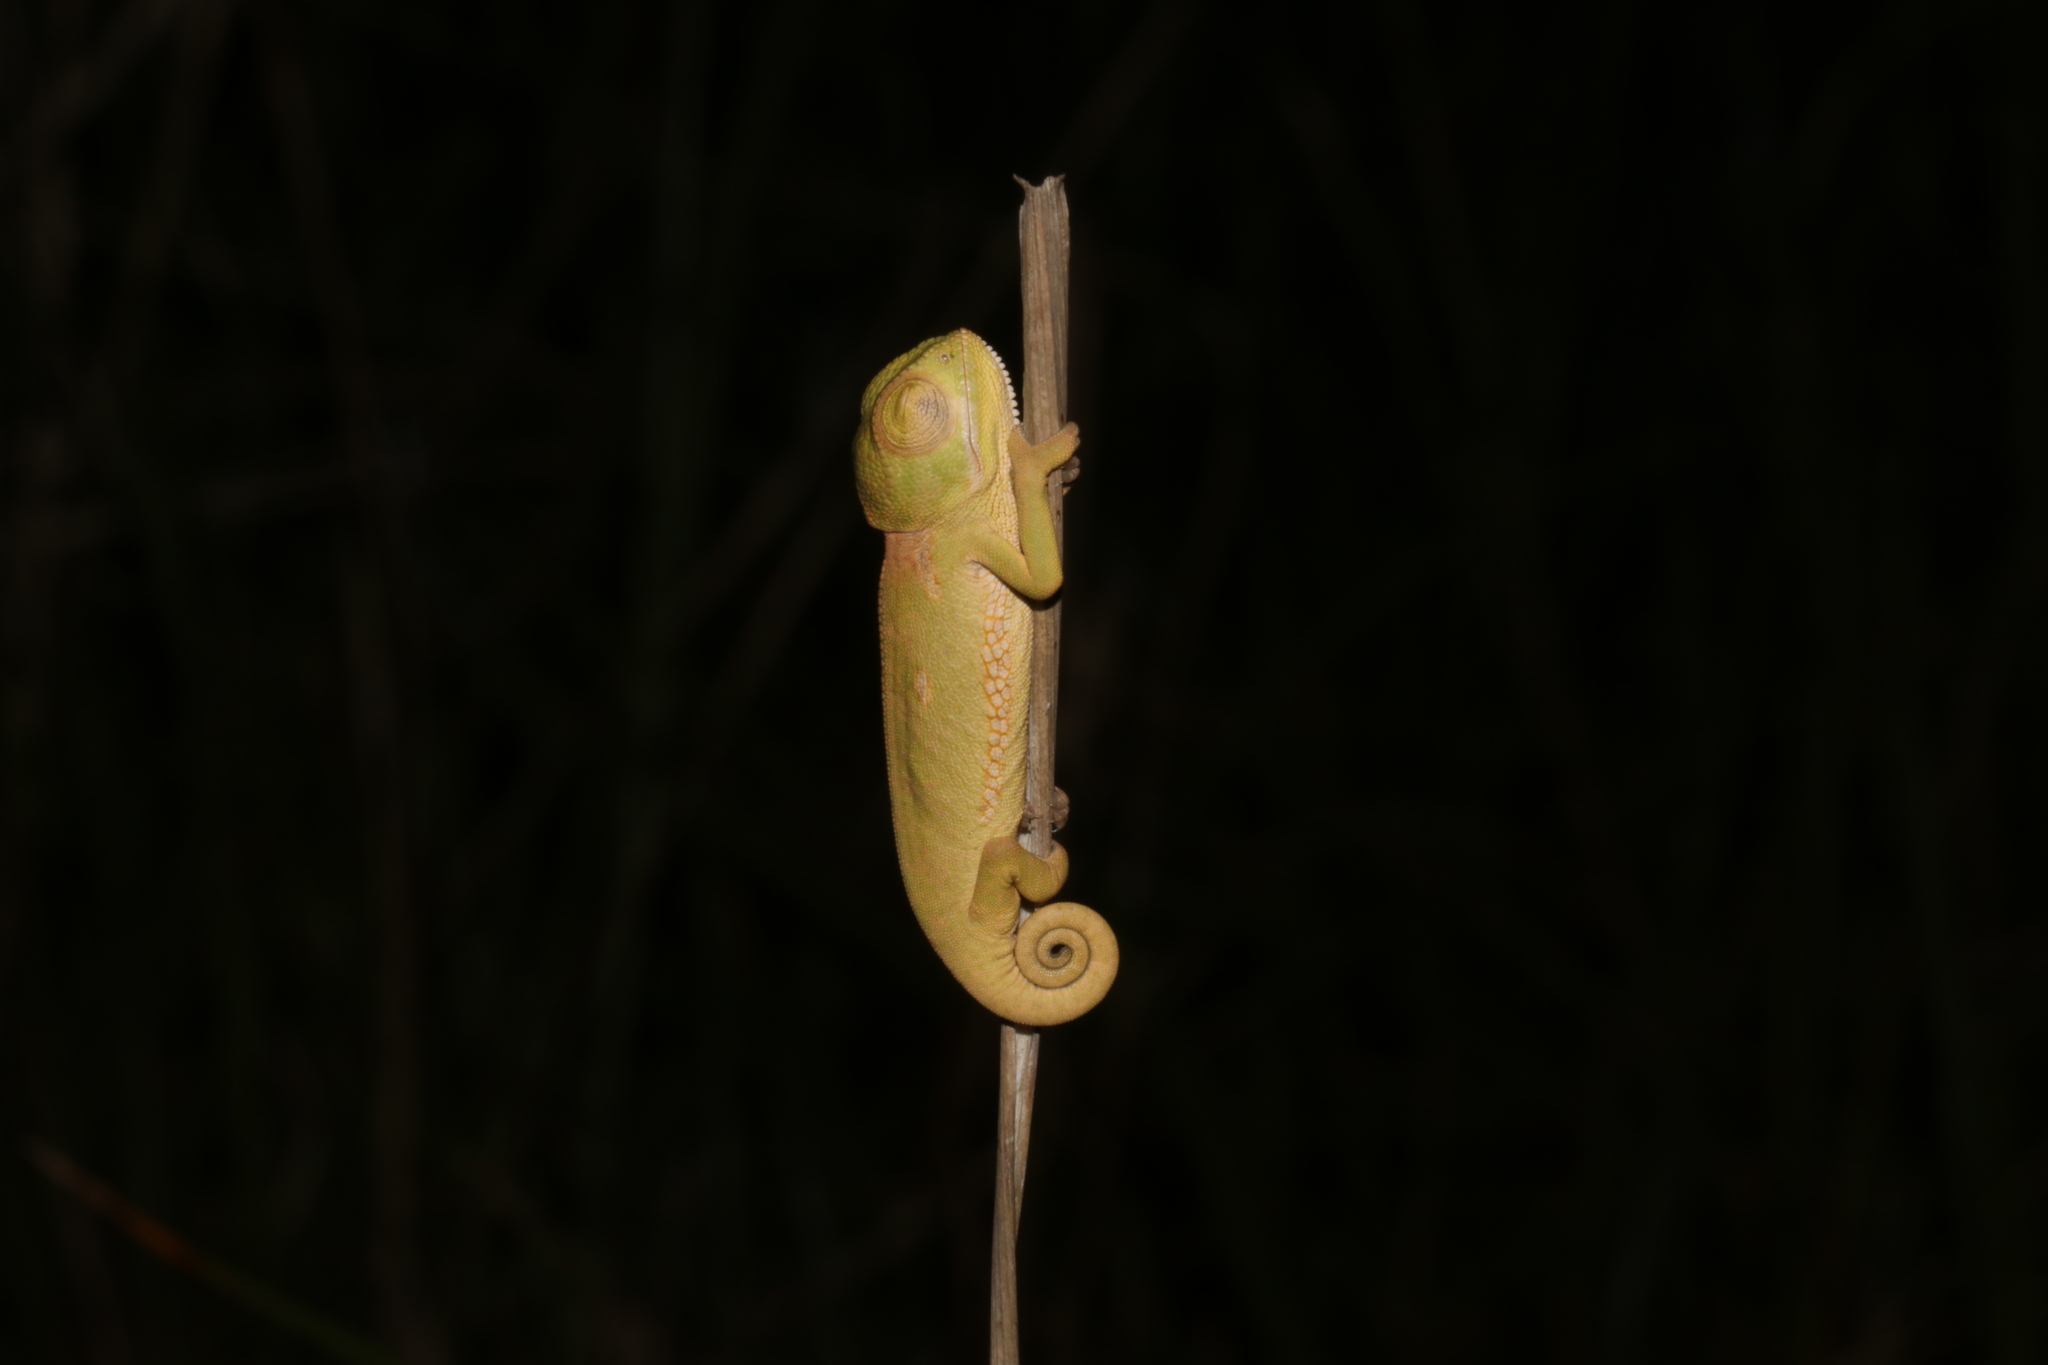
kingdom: Animalia
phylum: Chordata
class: Squamata
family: Chamaeleonidae
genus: Chamaeleo
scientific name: Chamaeleo dilepis
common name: Flapneck chameleon
